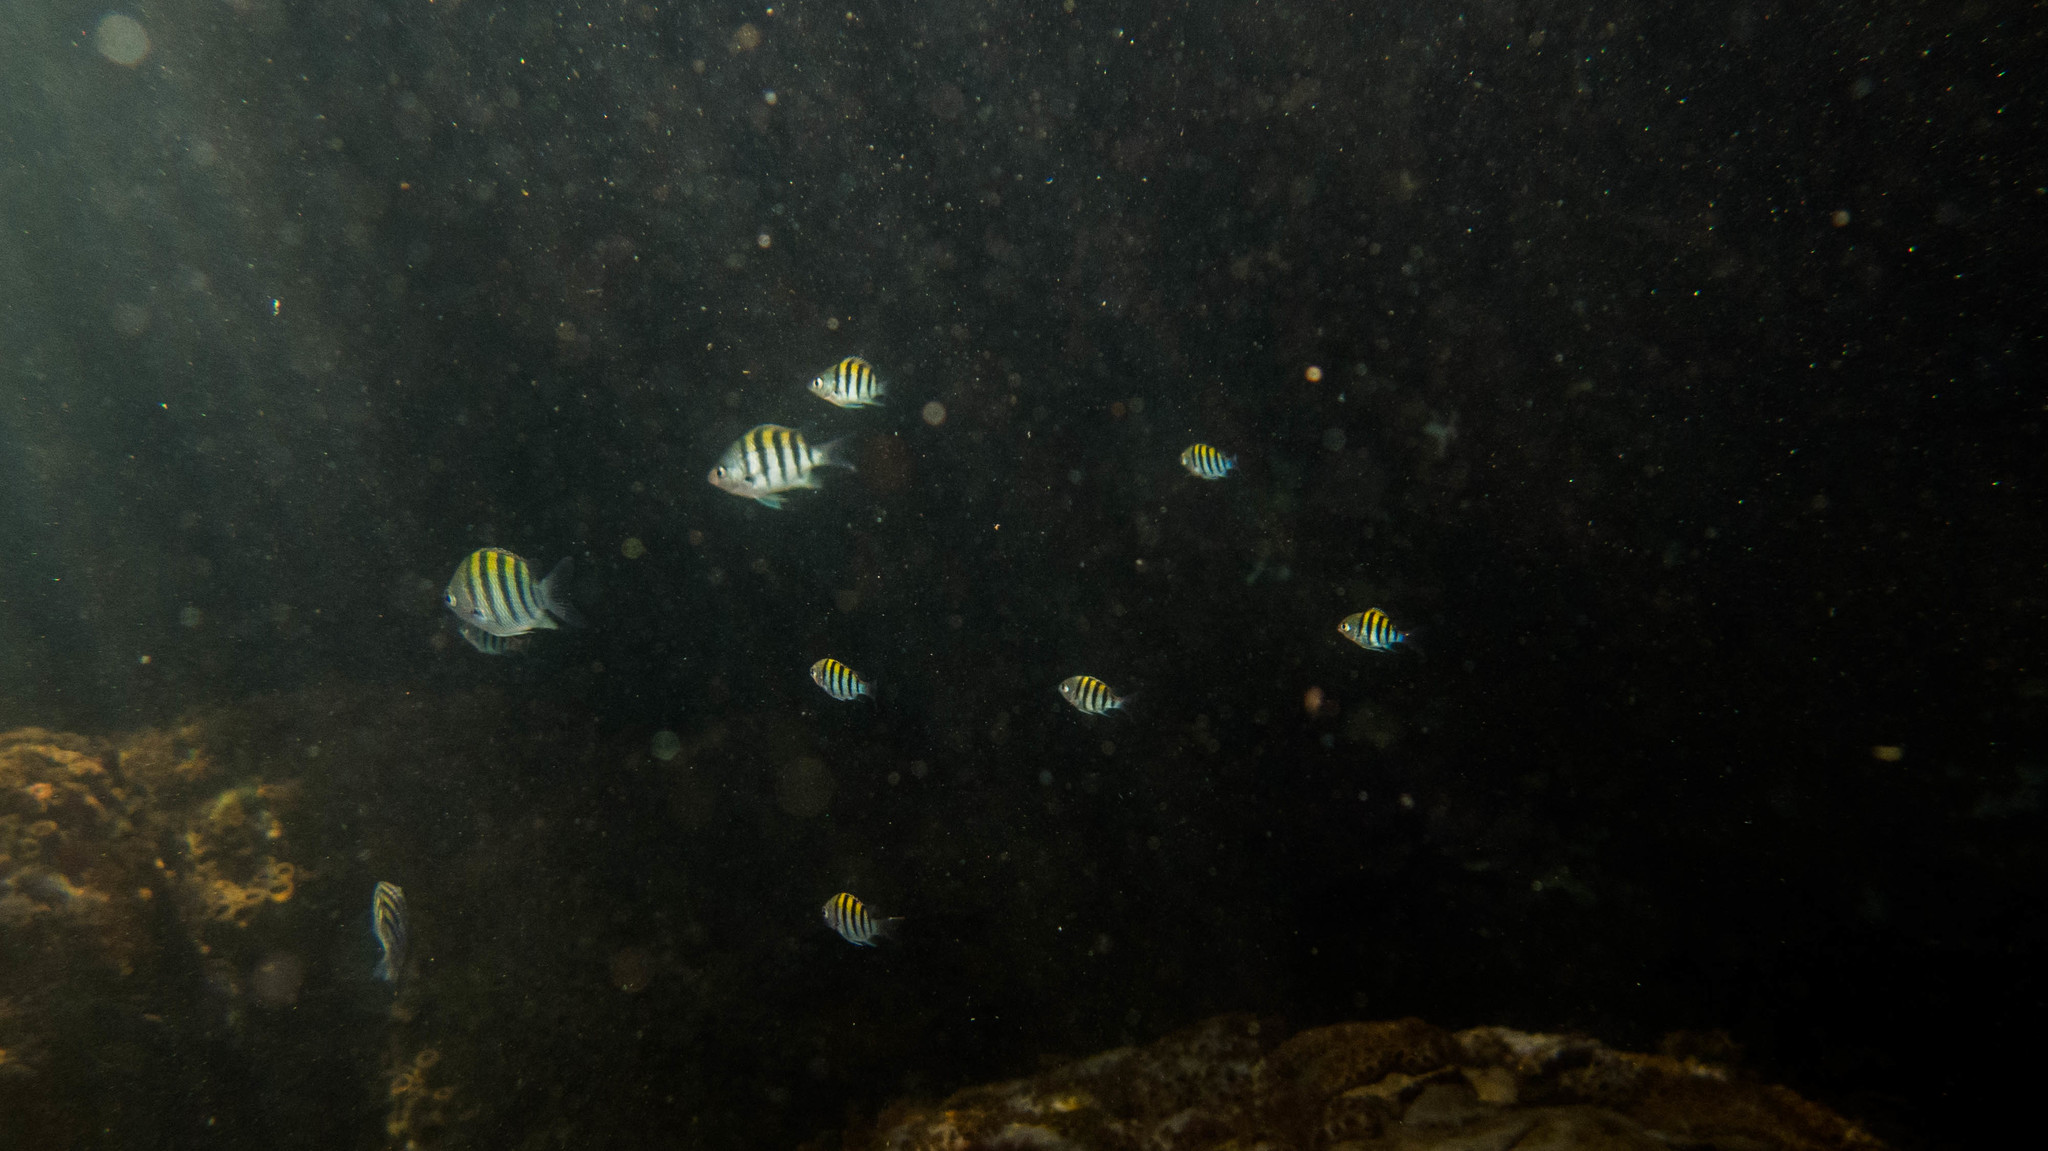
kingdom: Animalia
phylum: Chordata
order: Perciformes
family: Pomacentridae
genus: Abudefduf
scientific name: Abudefduf saxatilis
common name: Sergeant major
